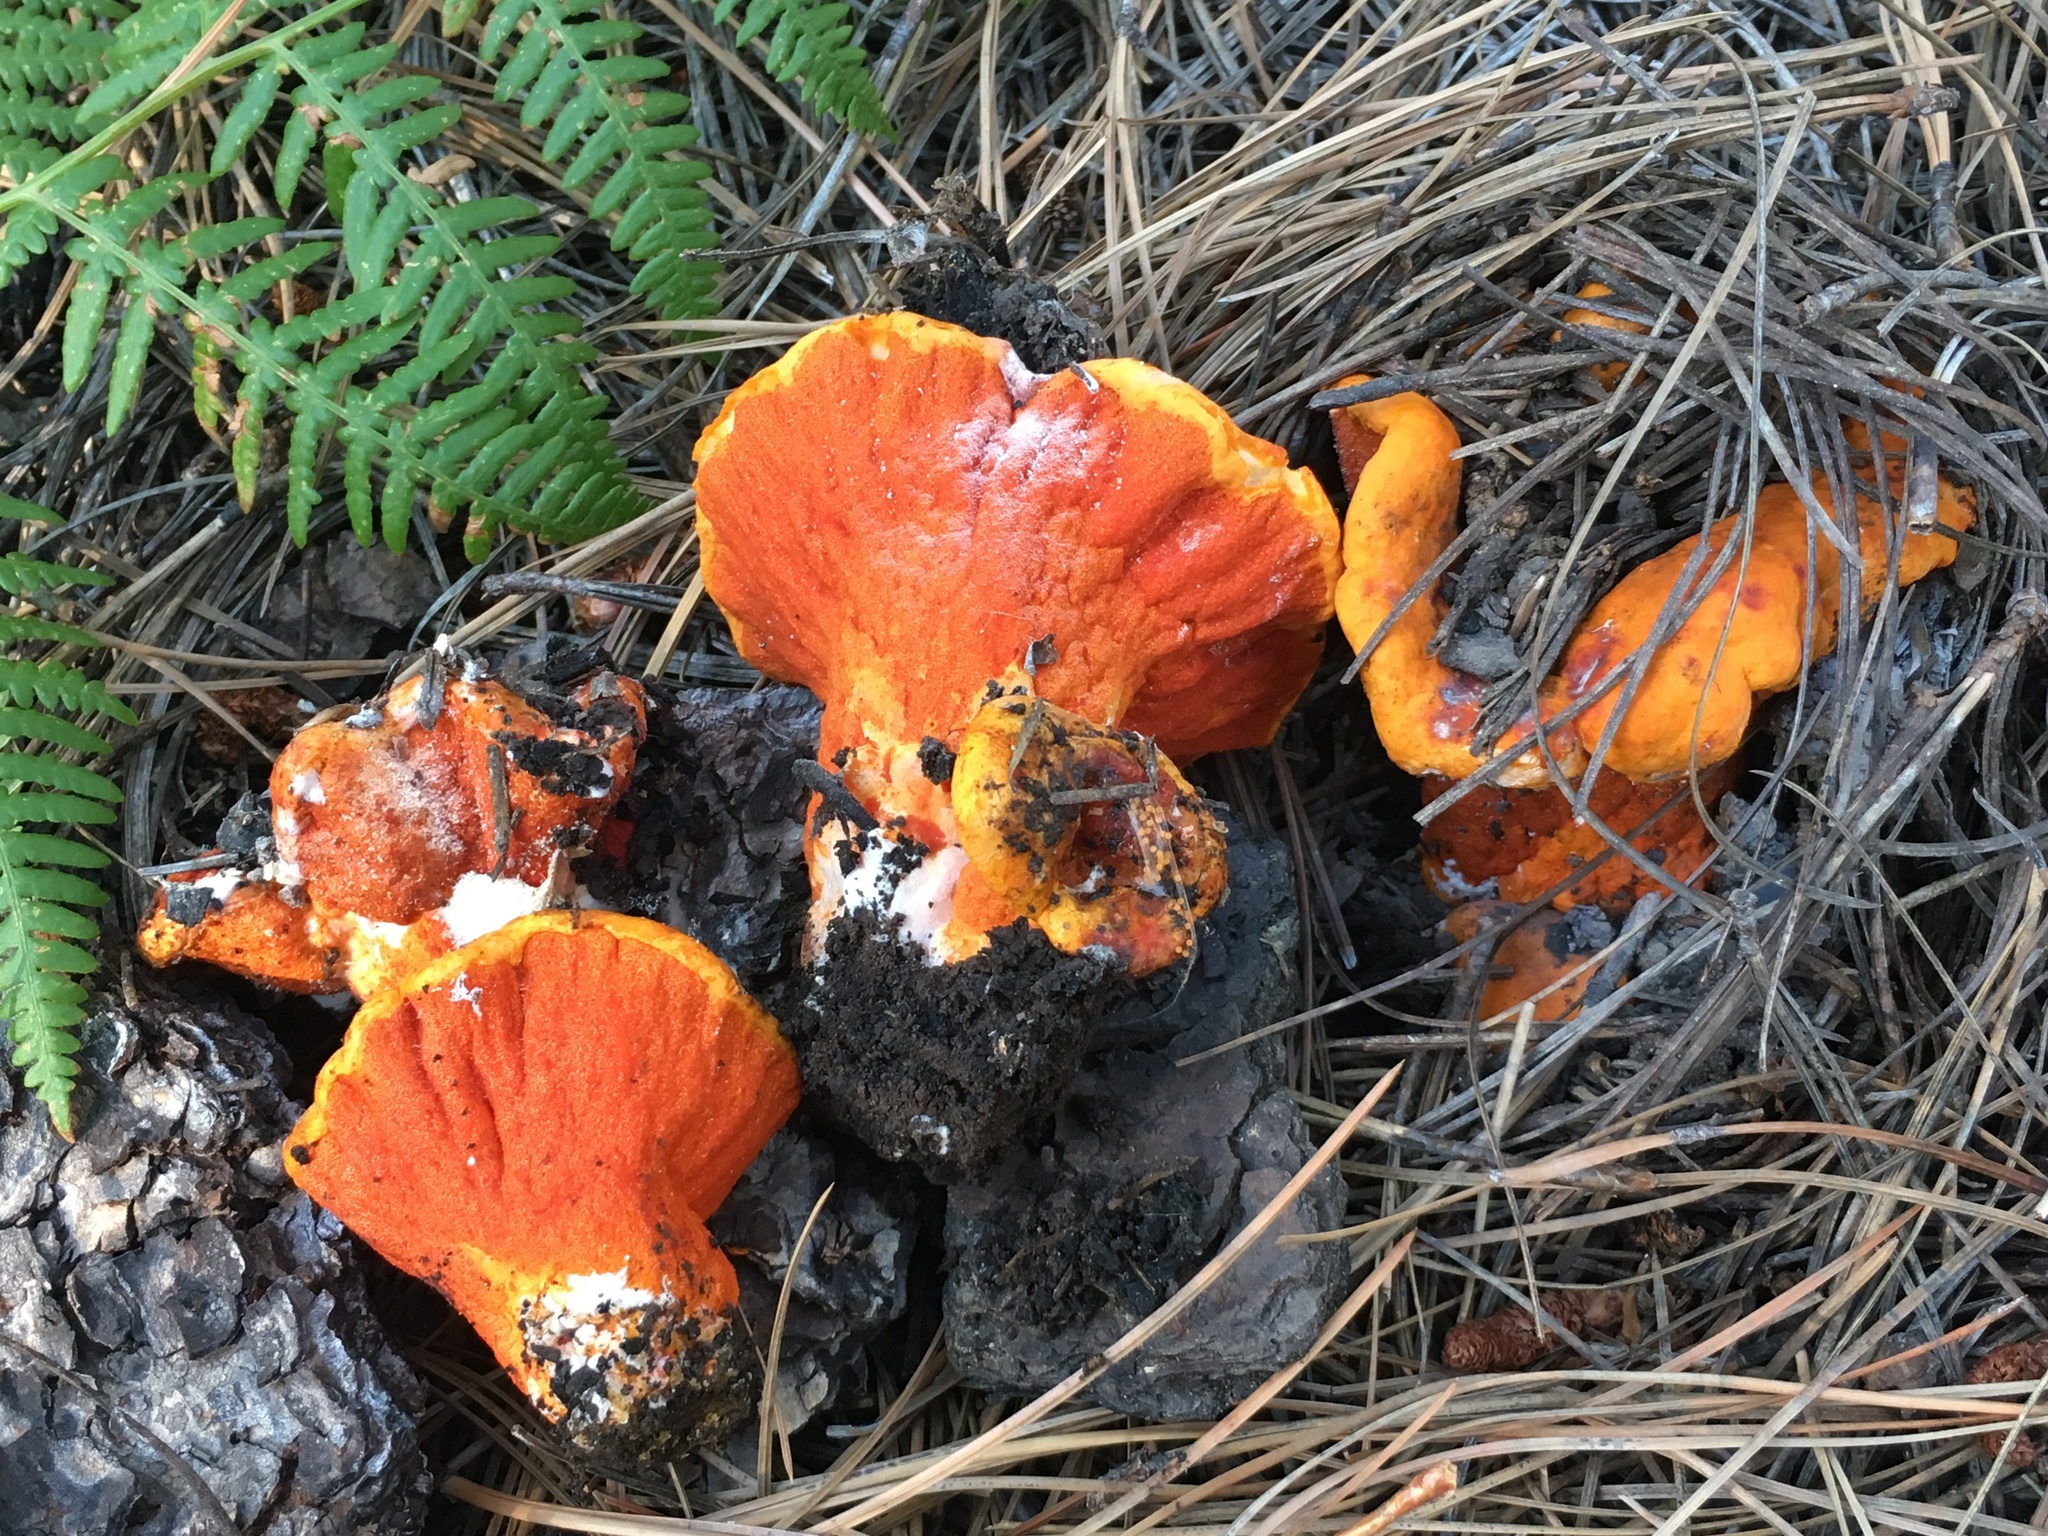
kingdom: Fungi
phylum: Ascomycota
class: Sordariomycetes
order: Hypocreales
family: Hypocreaceae
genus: Hypomyces
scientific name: Hypomyces lactifluorum
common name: Lobster mushroom
